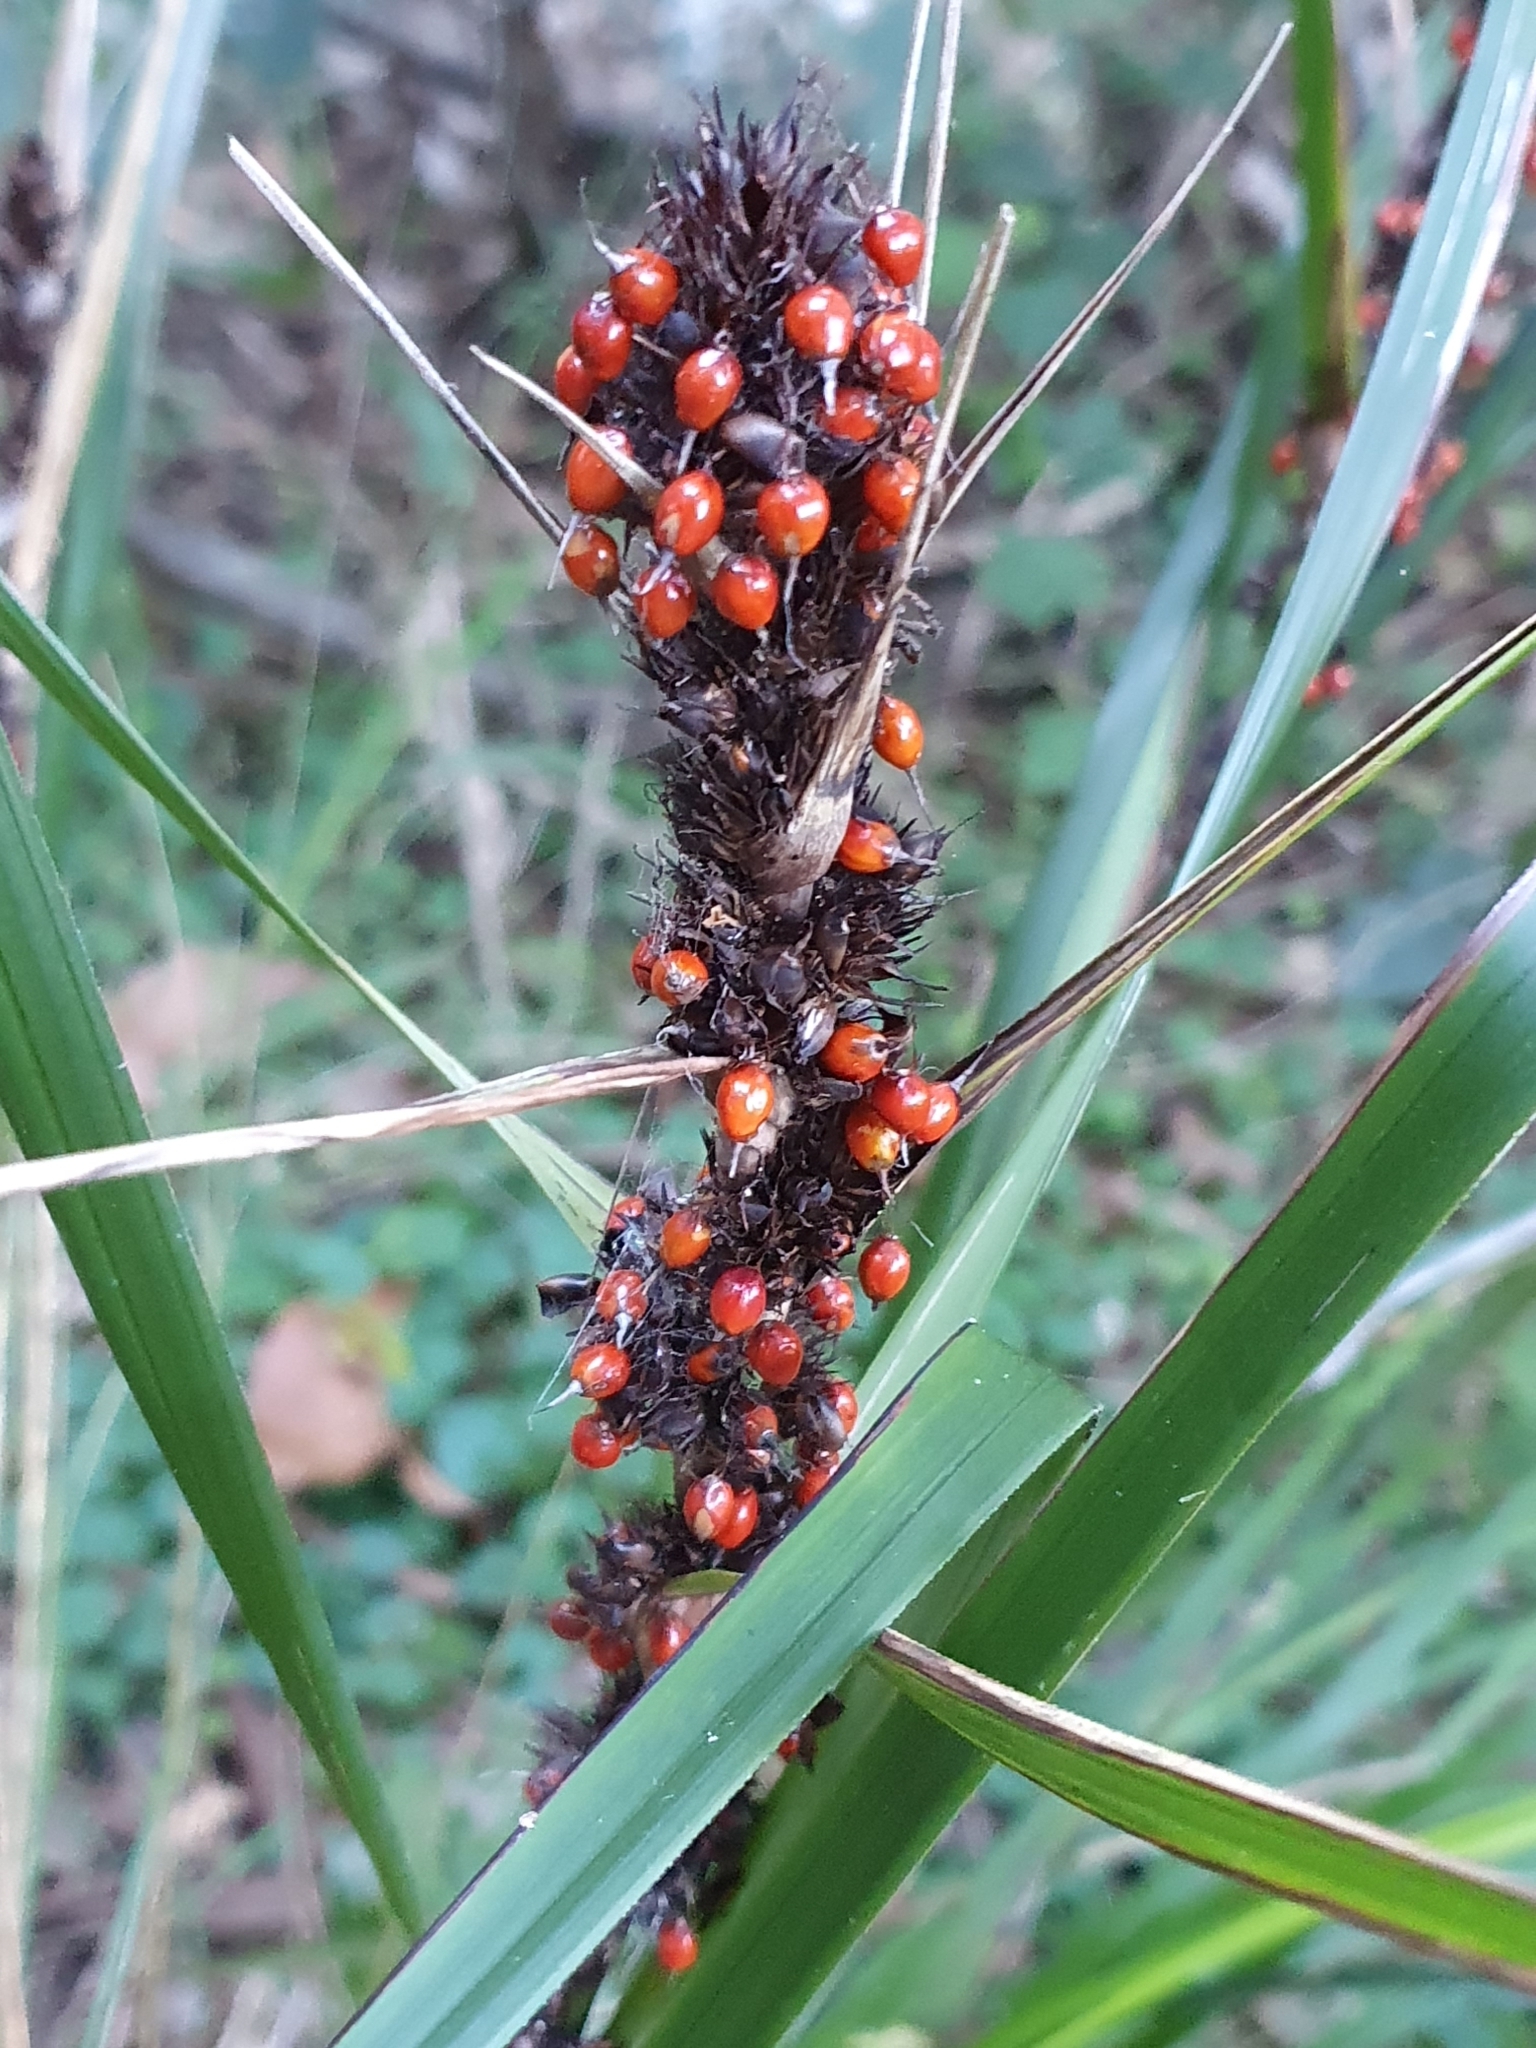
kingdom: Plantae
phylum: Tracheophyta
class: Liliopsida
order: Poales
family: Cyperaceae
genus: Gahnia
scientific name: Gahnia aspera
